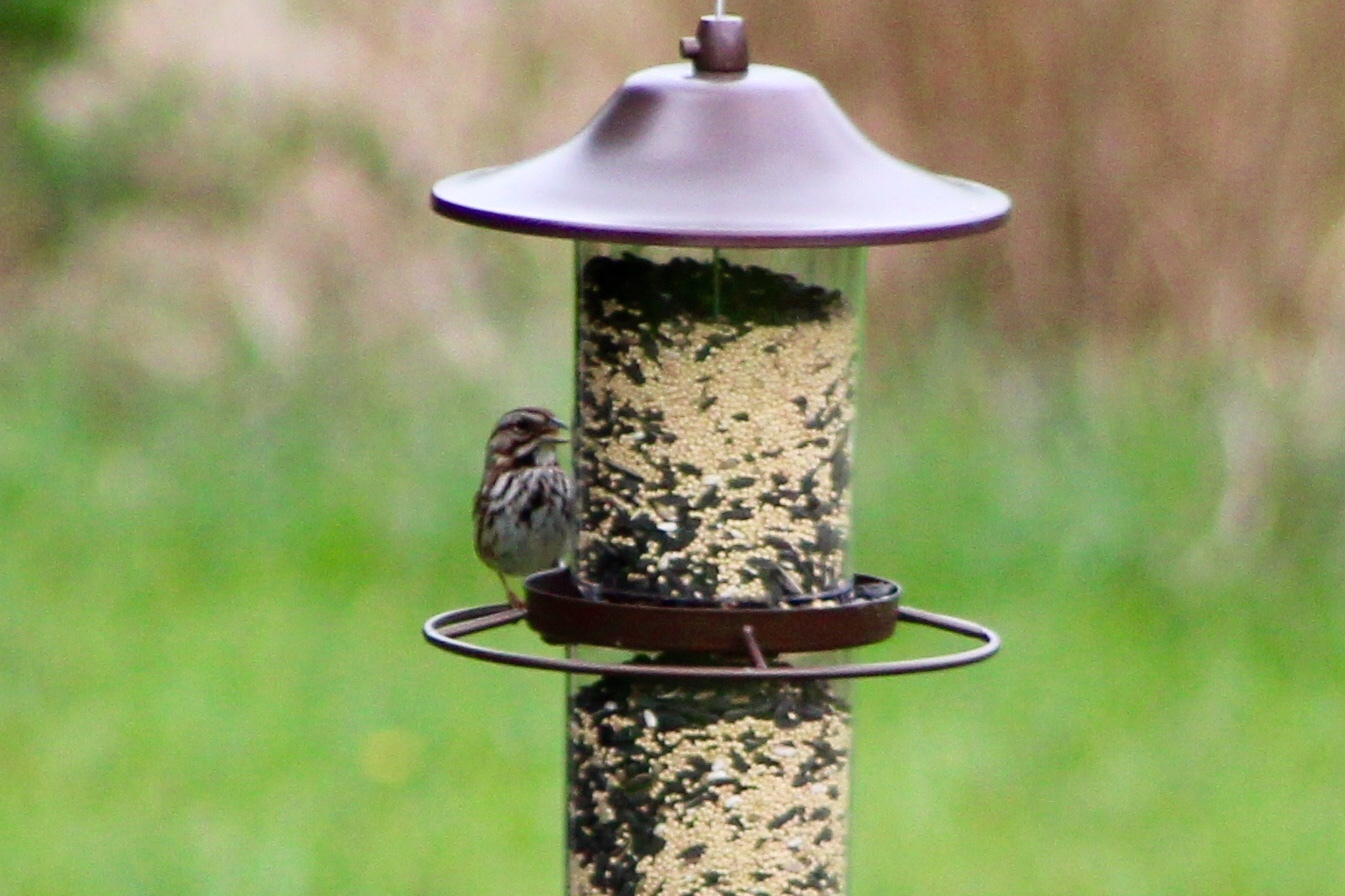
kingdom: Animalia
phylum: Chordata
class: Aves
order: Passeriformes
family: Passerellidae
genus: Melospiza
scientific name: Melospiza melodia
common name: Song sparrow
